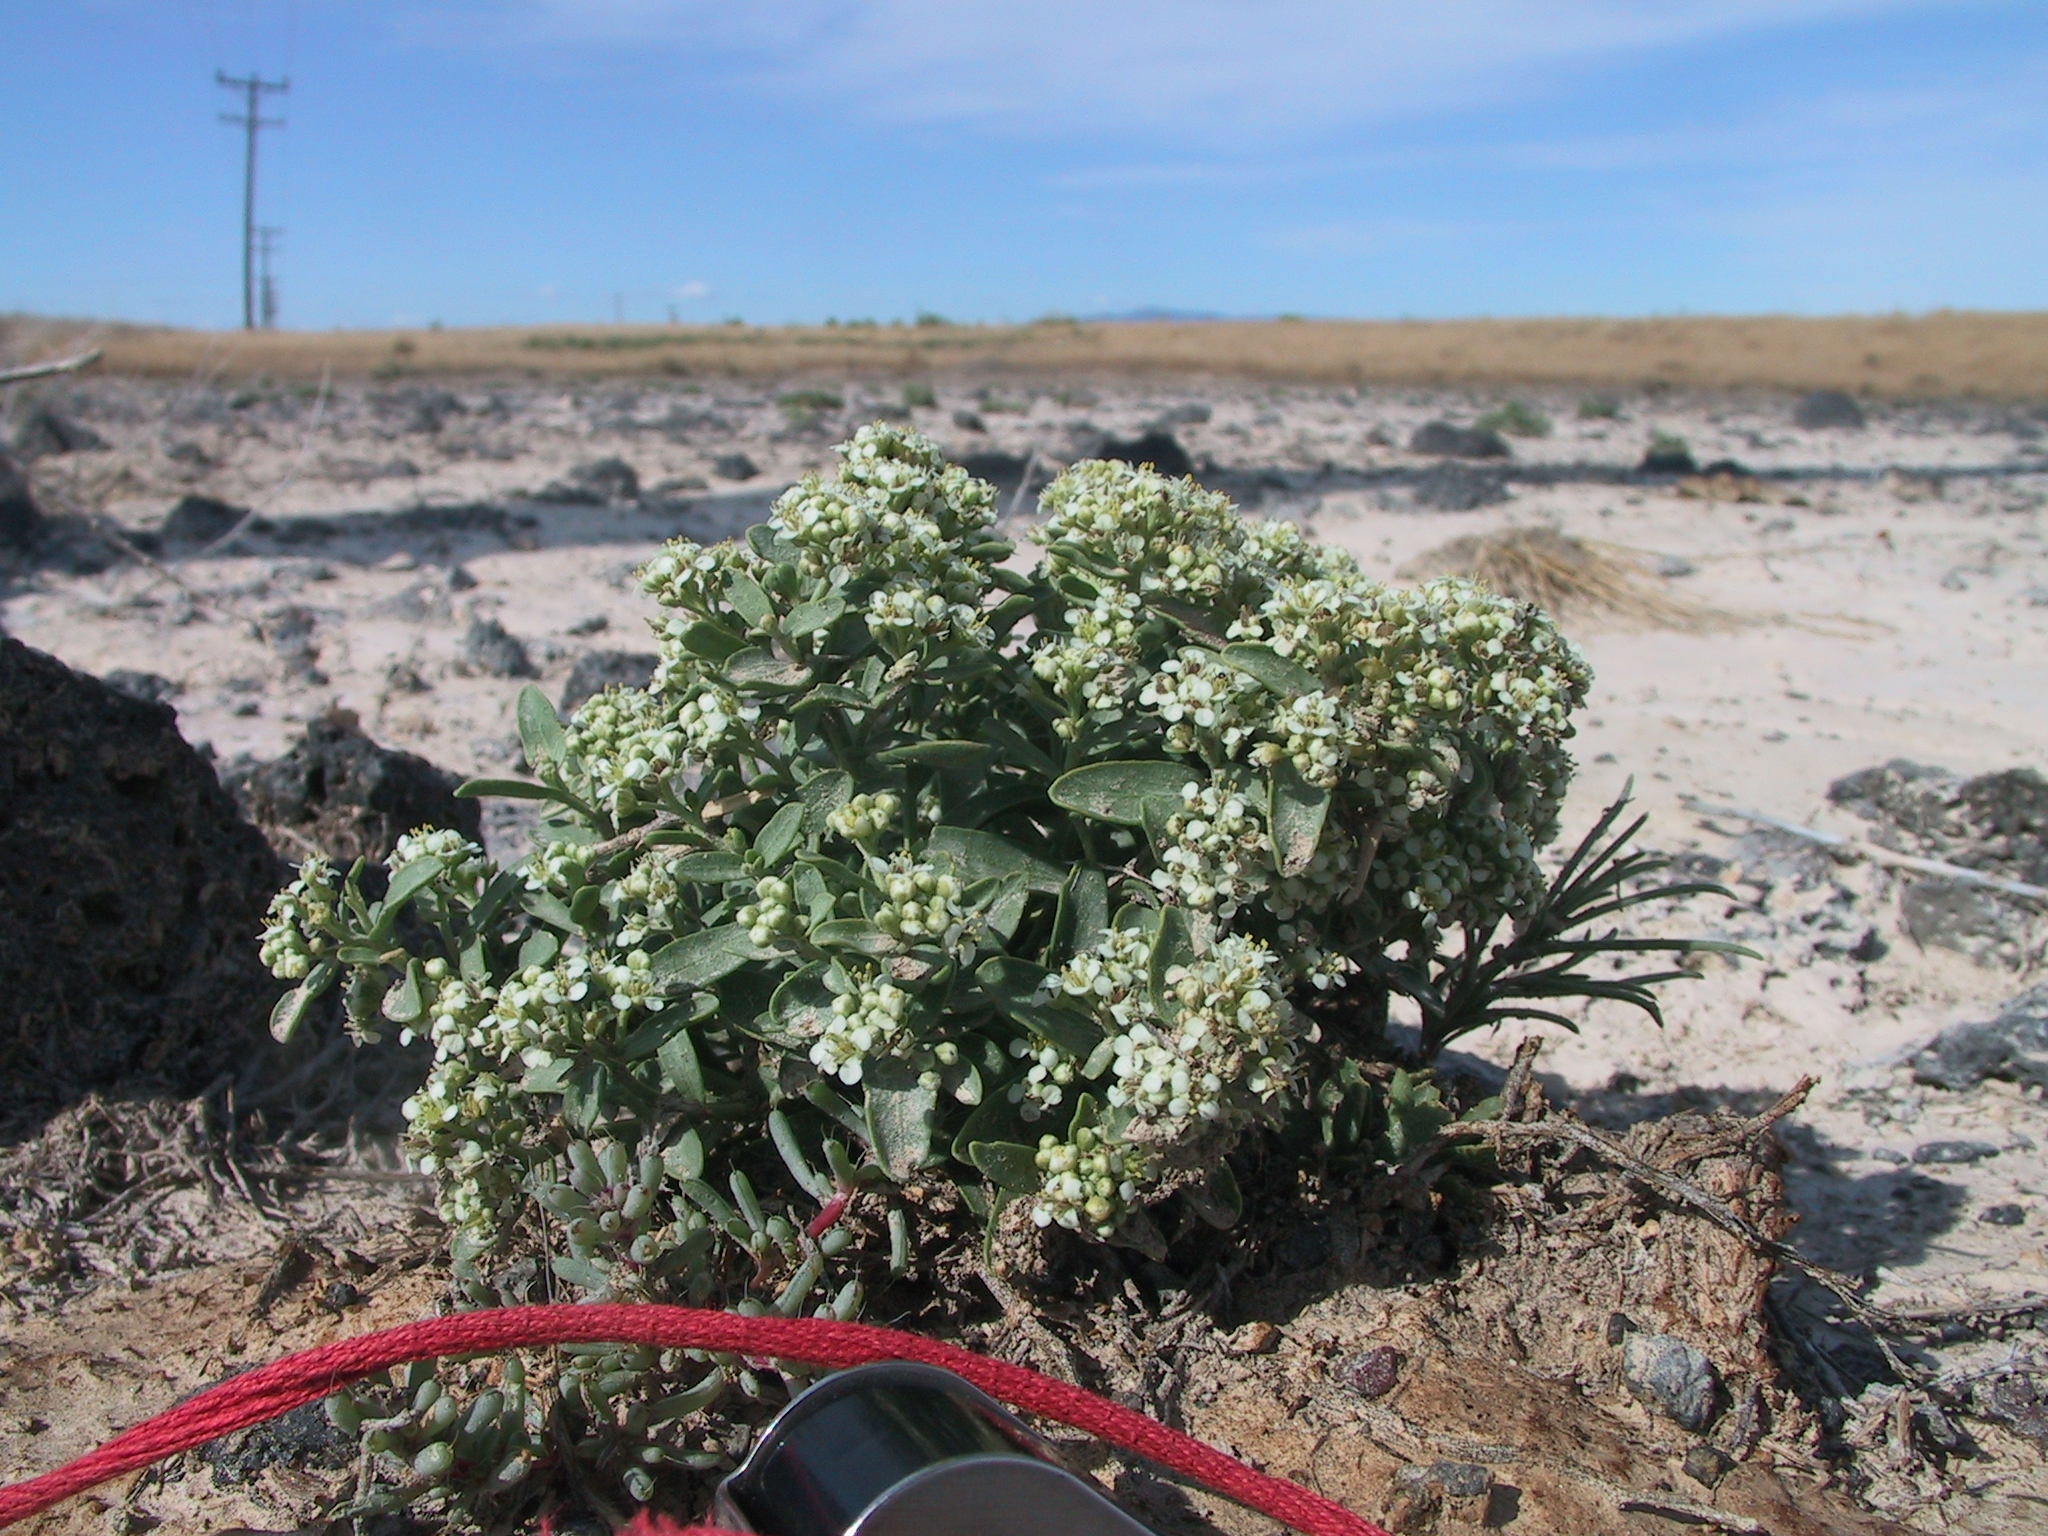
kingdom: Plantae
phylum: Tracheophyta
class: Magnoliopsida
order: Brassicales
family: Brassicaceae
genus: Lepidium
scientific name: Lepidium davisii
